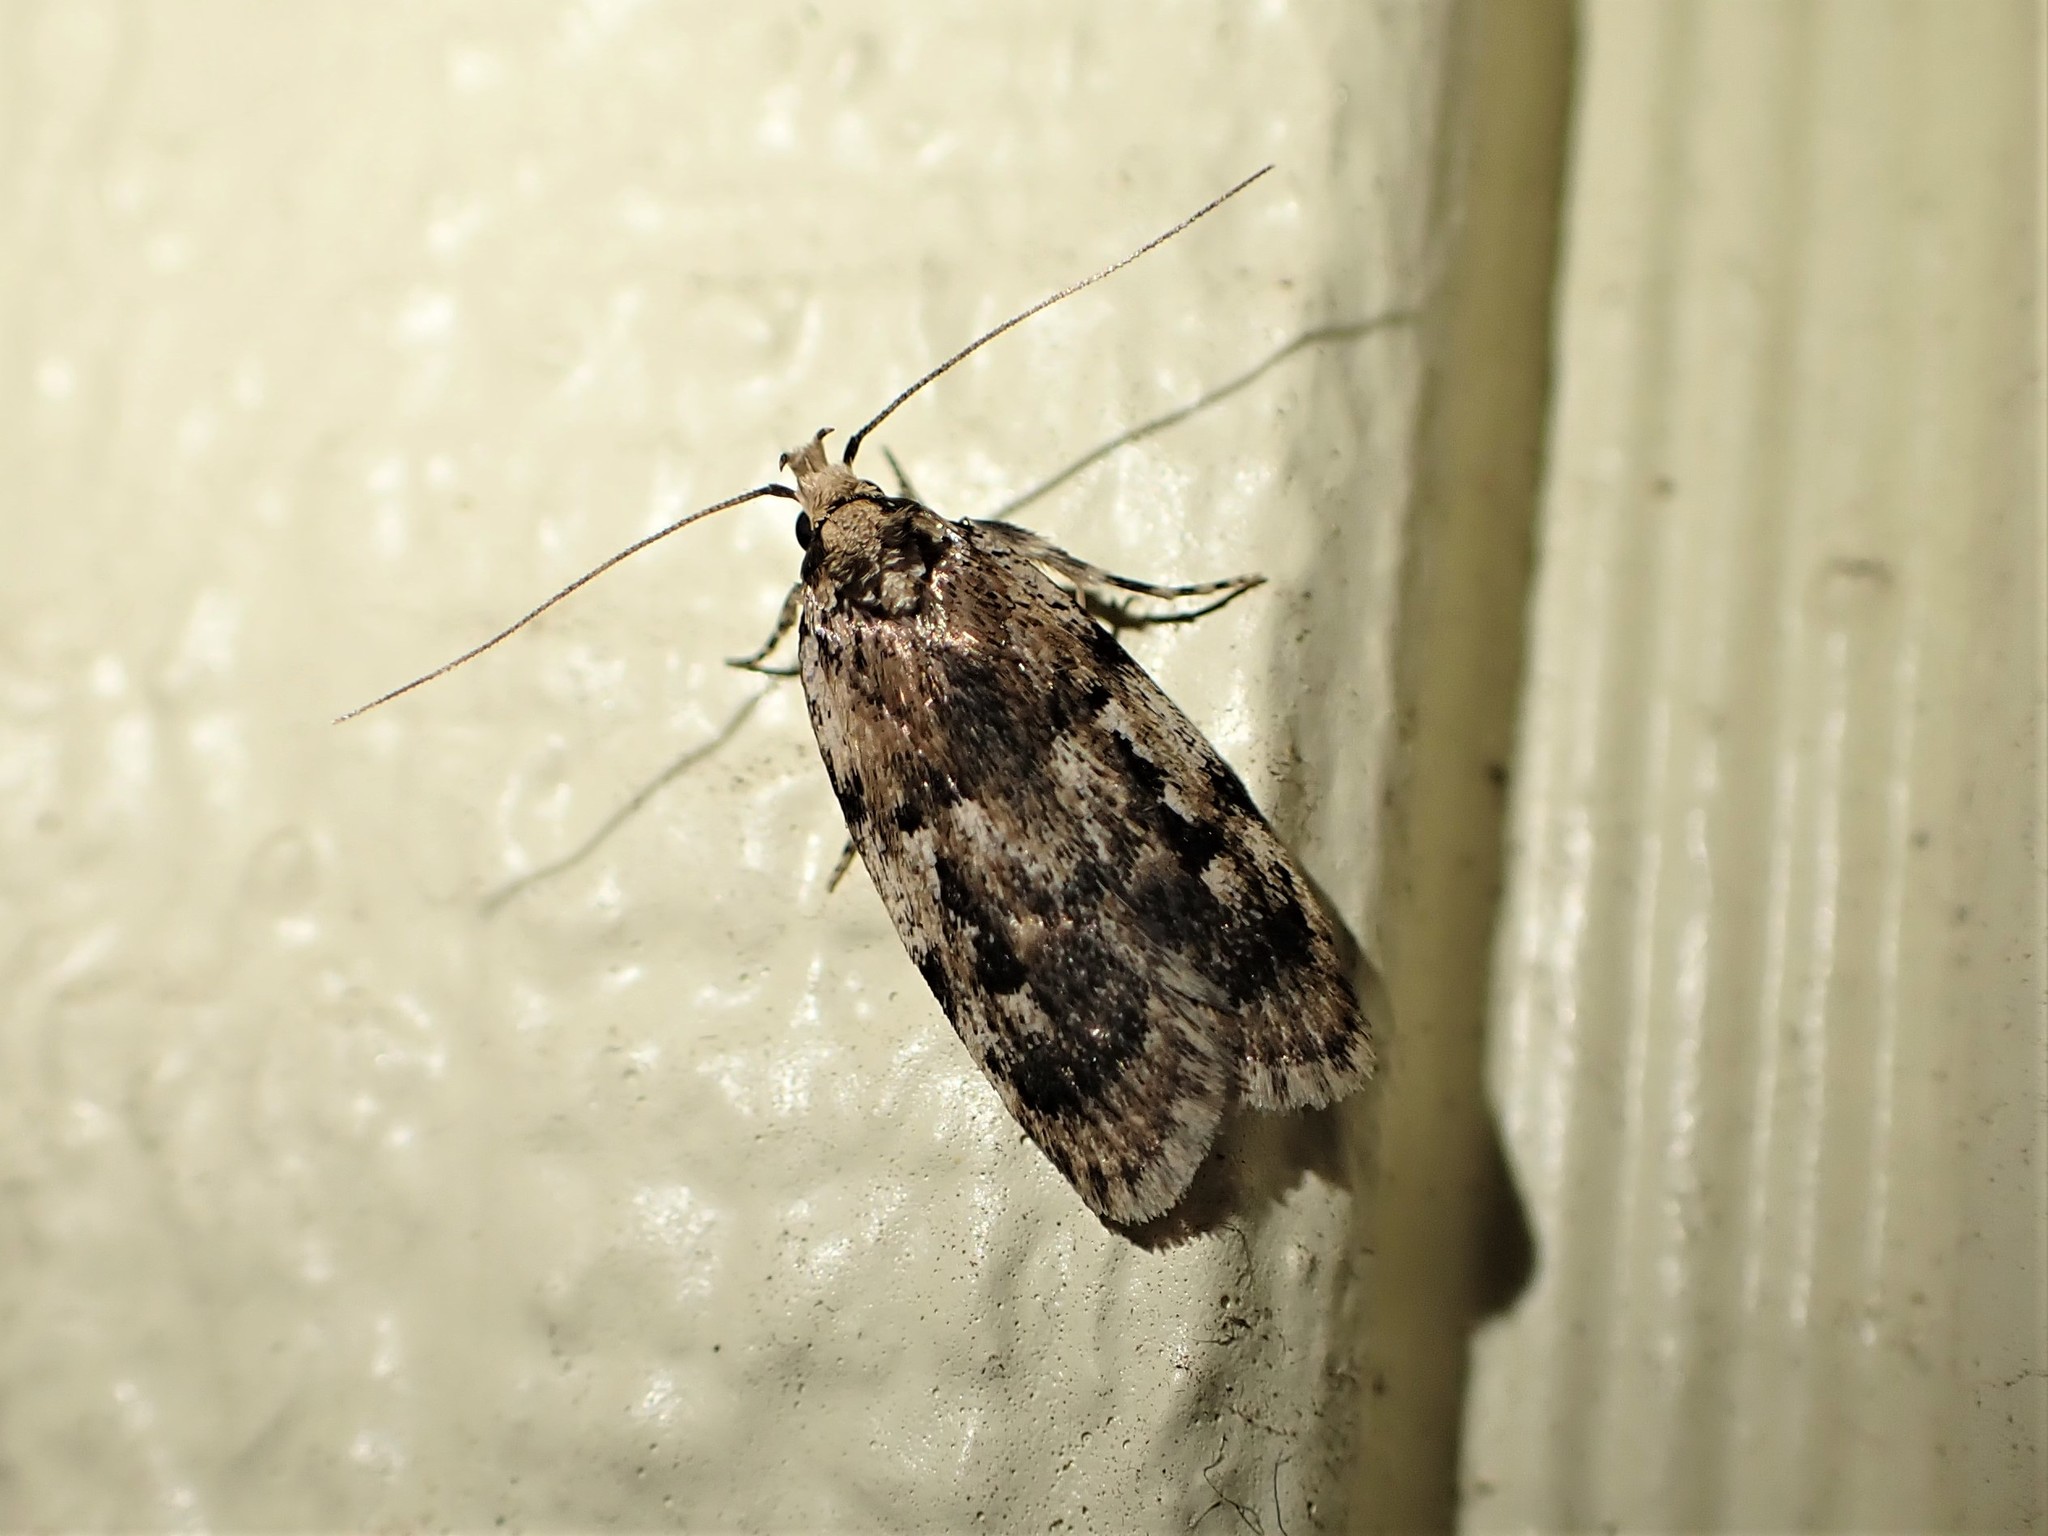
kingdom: Animalia
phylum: Arthropoda
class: Insecta
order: Lepidoptera
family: Oecophoridae
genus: Barea
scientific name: Barea exarcha
